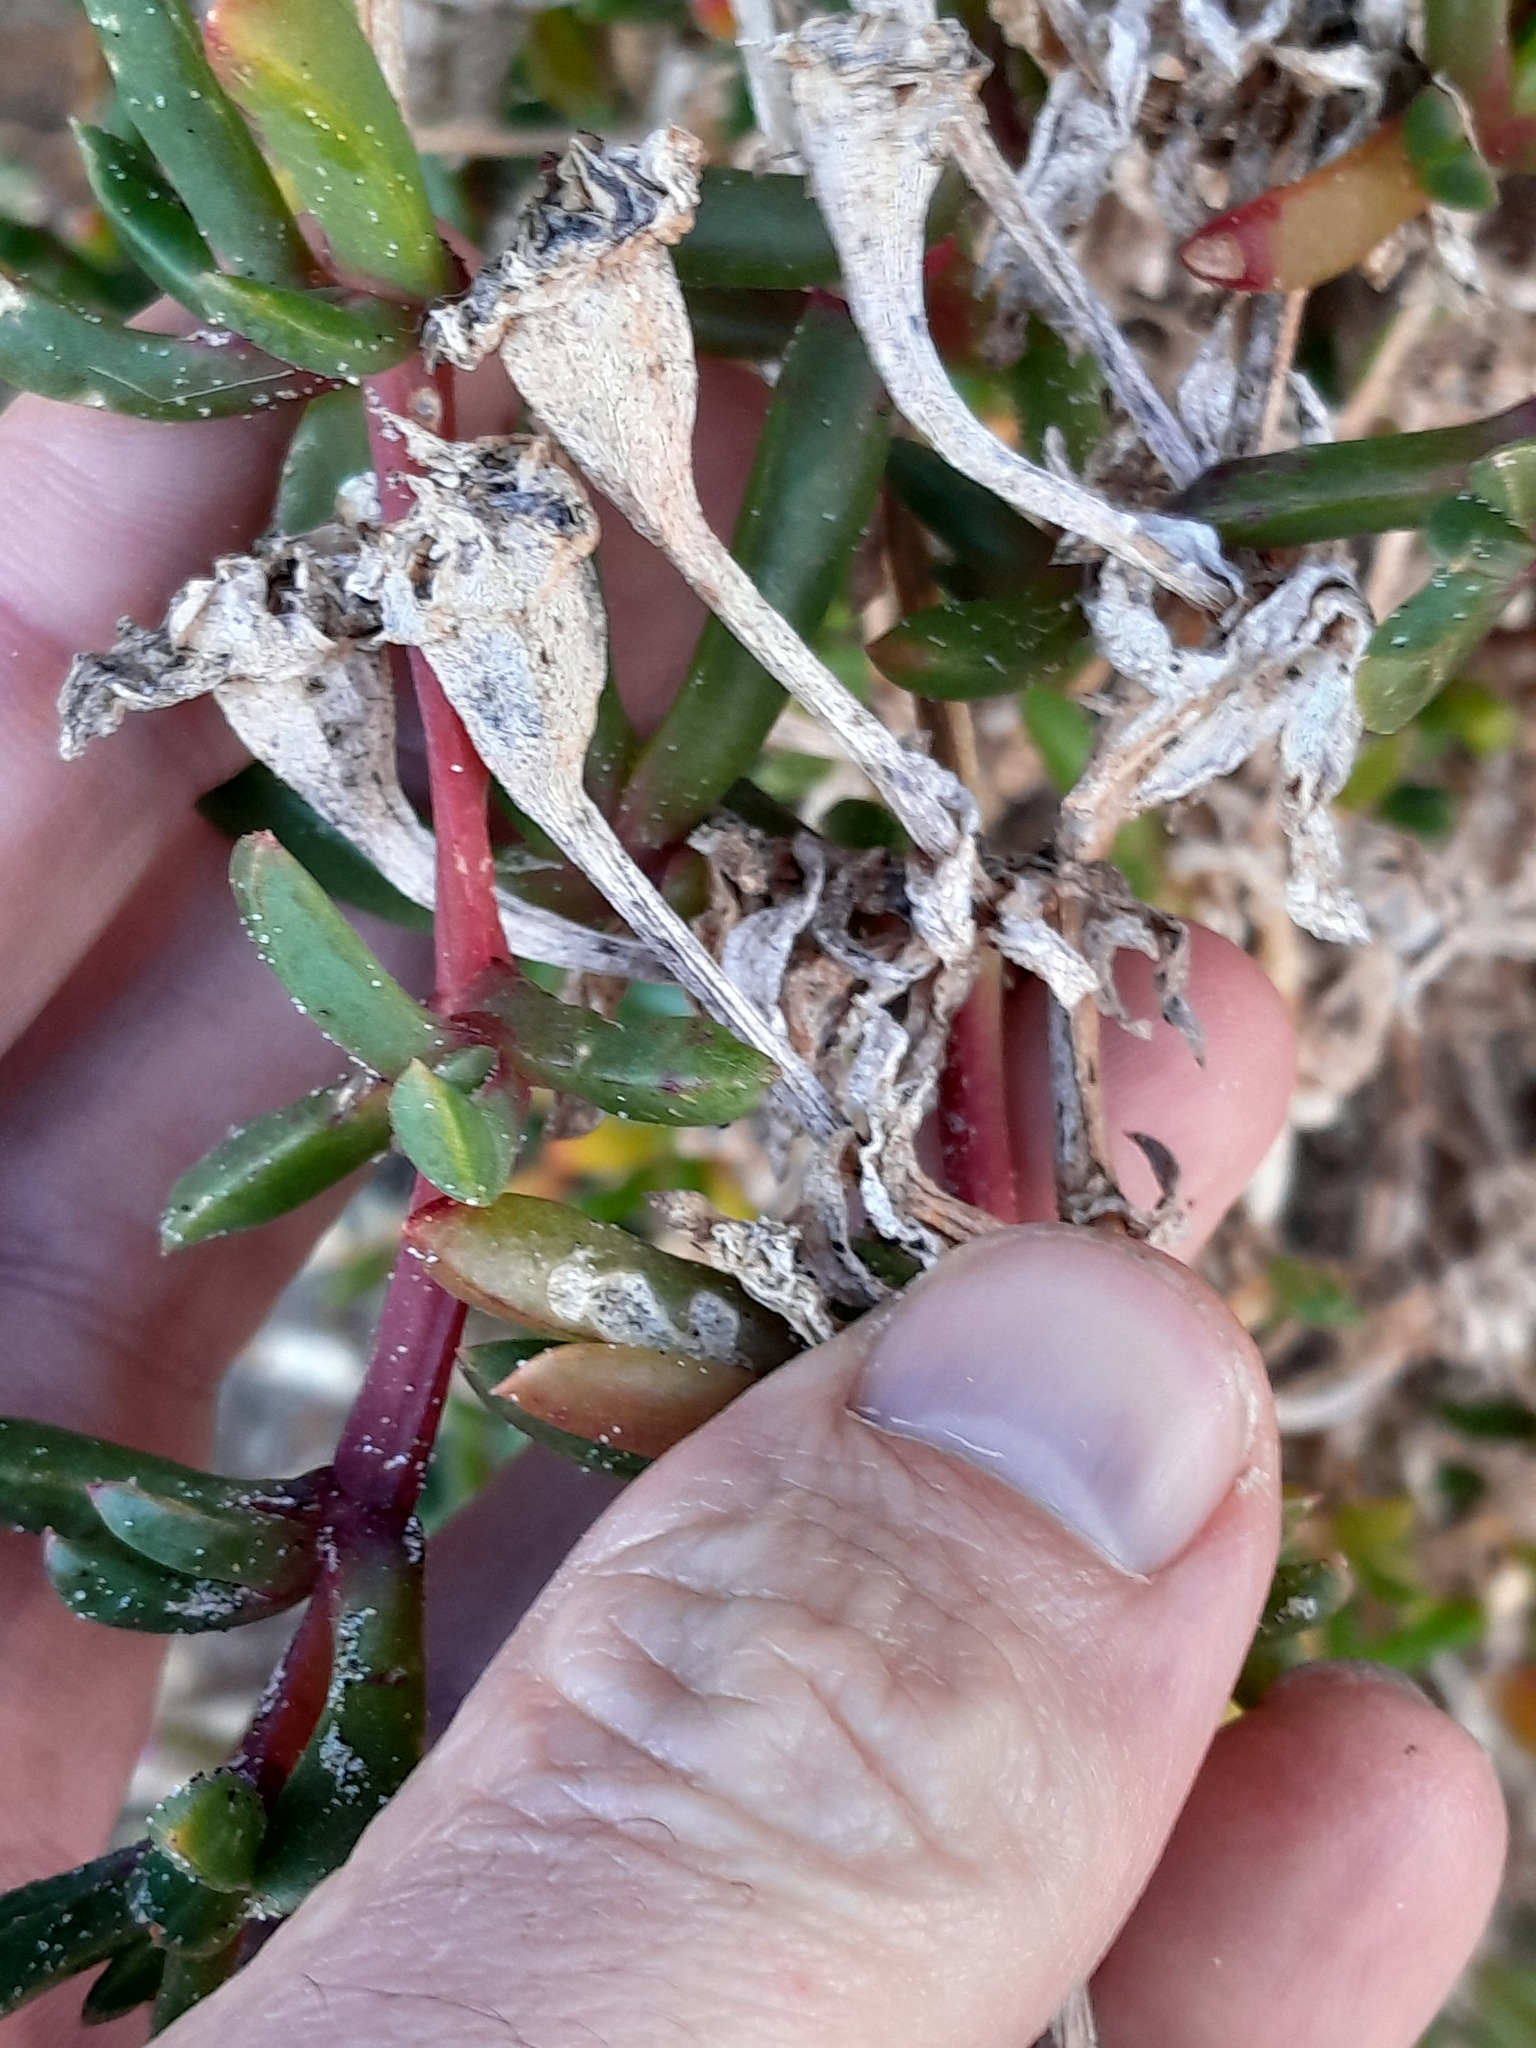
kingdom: Plantae
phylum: Tracheophyta
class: Magnoliopsida
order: Caryophyllales
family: Aizoaceae
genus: Disphyma
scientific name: Disphyma australe
